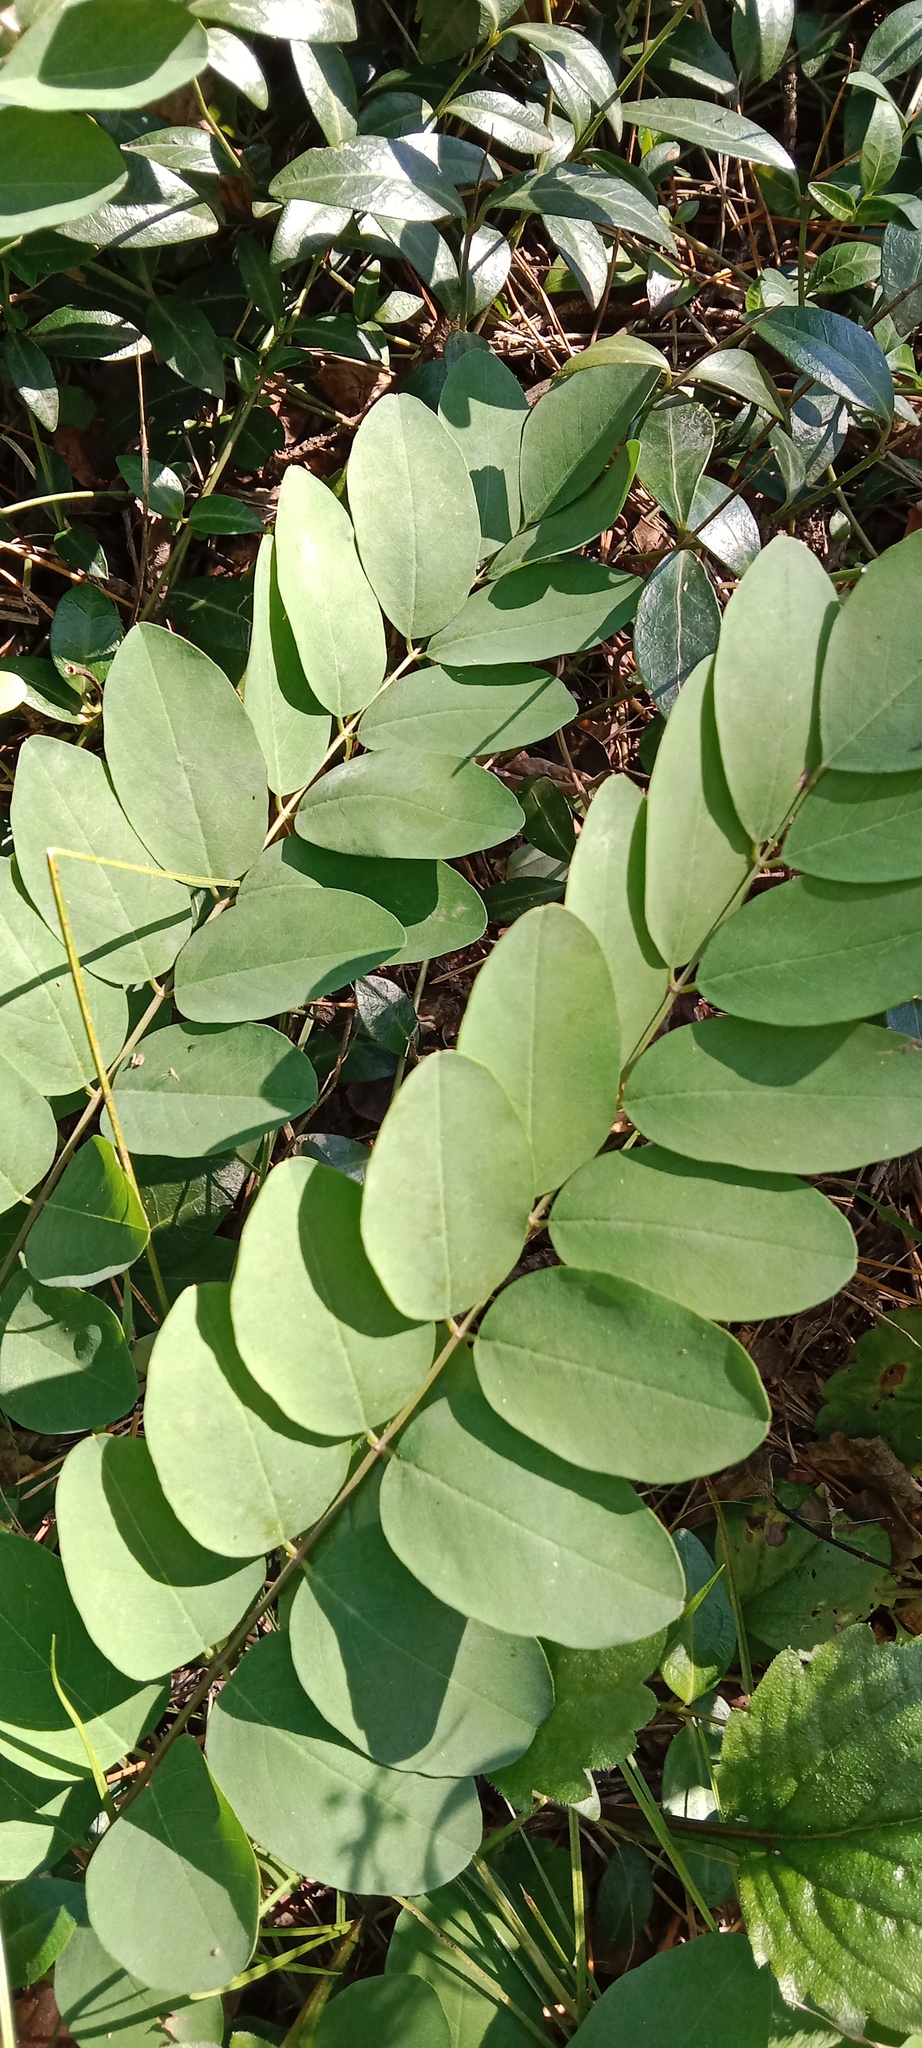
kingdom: Plantae
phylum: Tracheophyta
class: Magnoliopsida
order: Fabales
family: Fabaceae
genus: Robinia
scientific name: Robinia pseudoacacia
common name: Black locust
